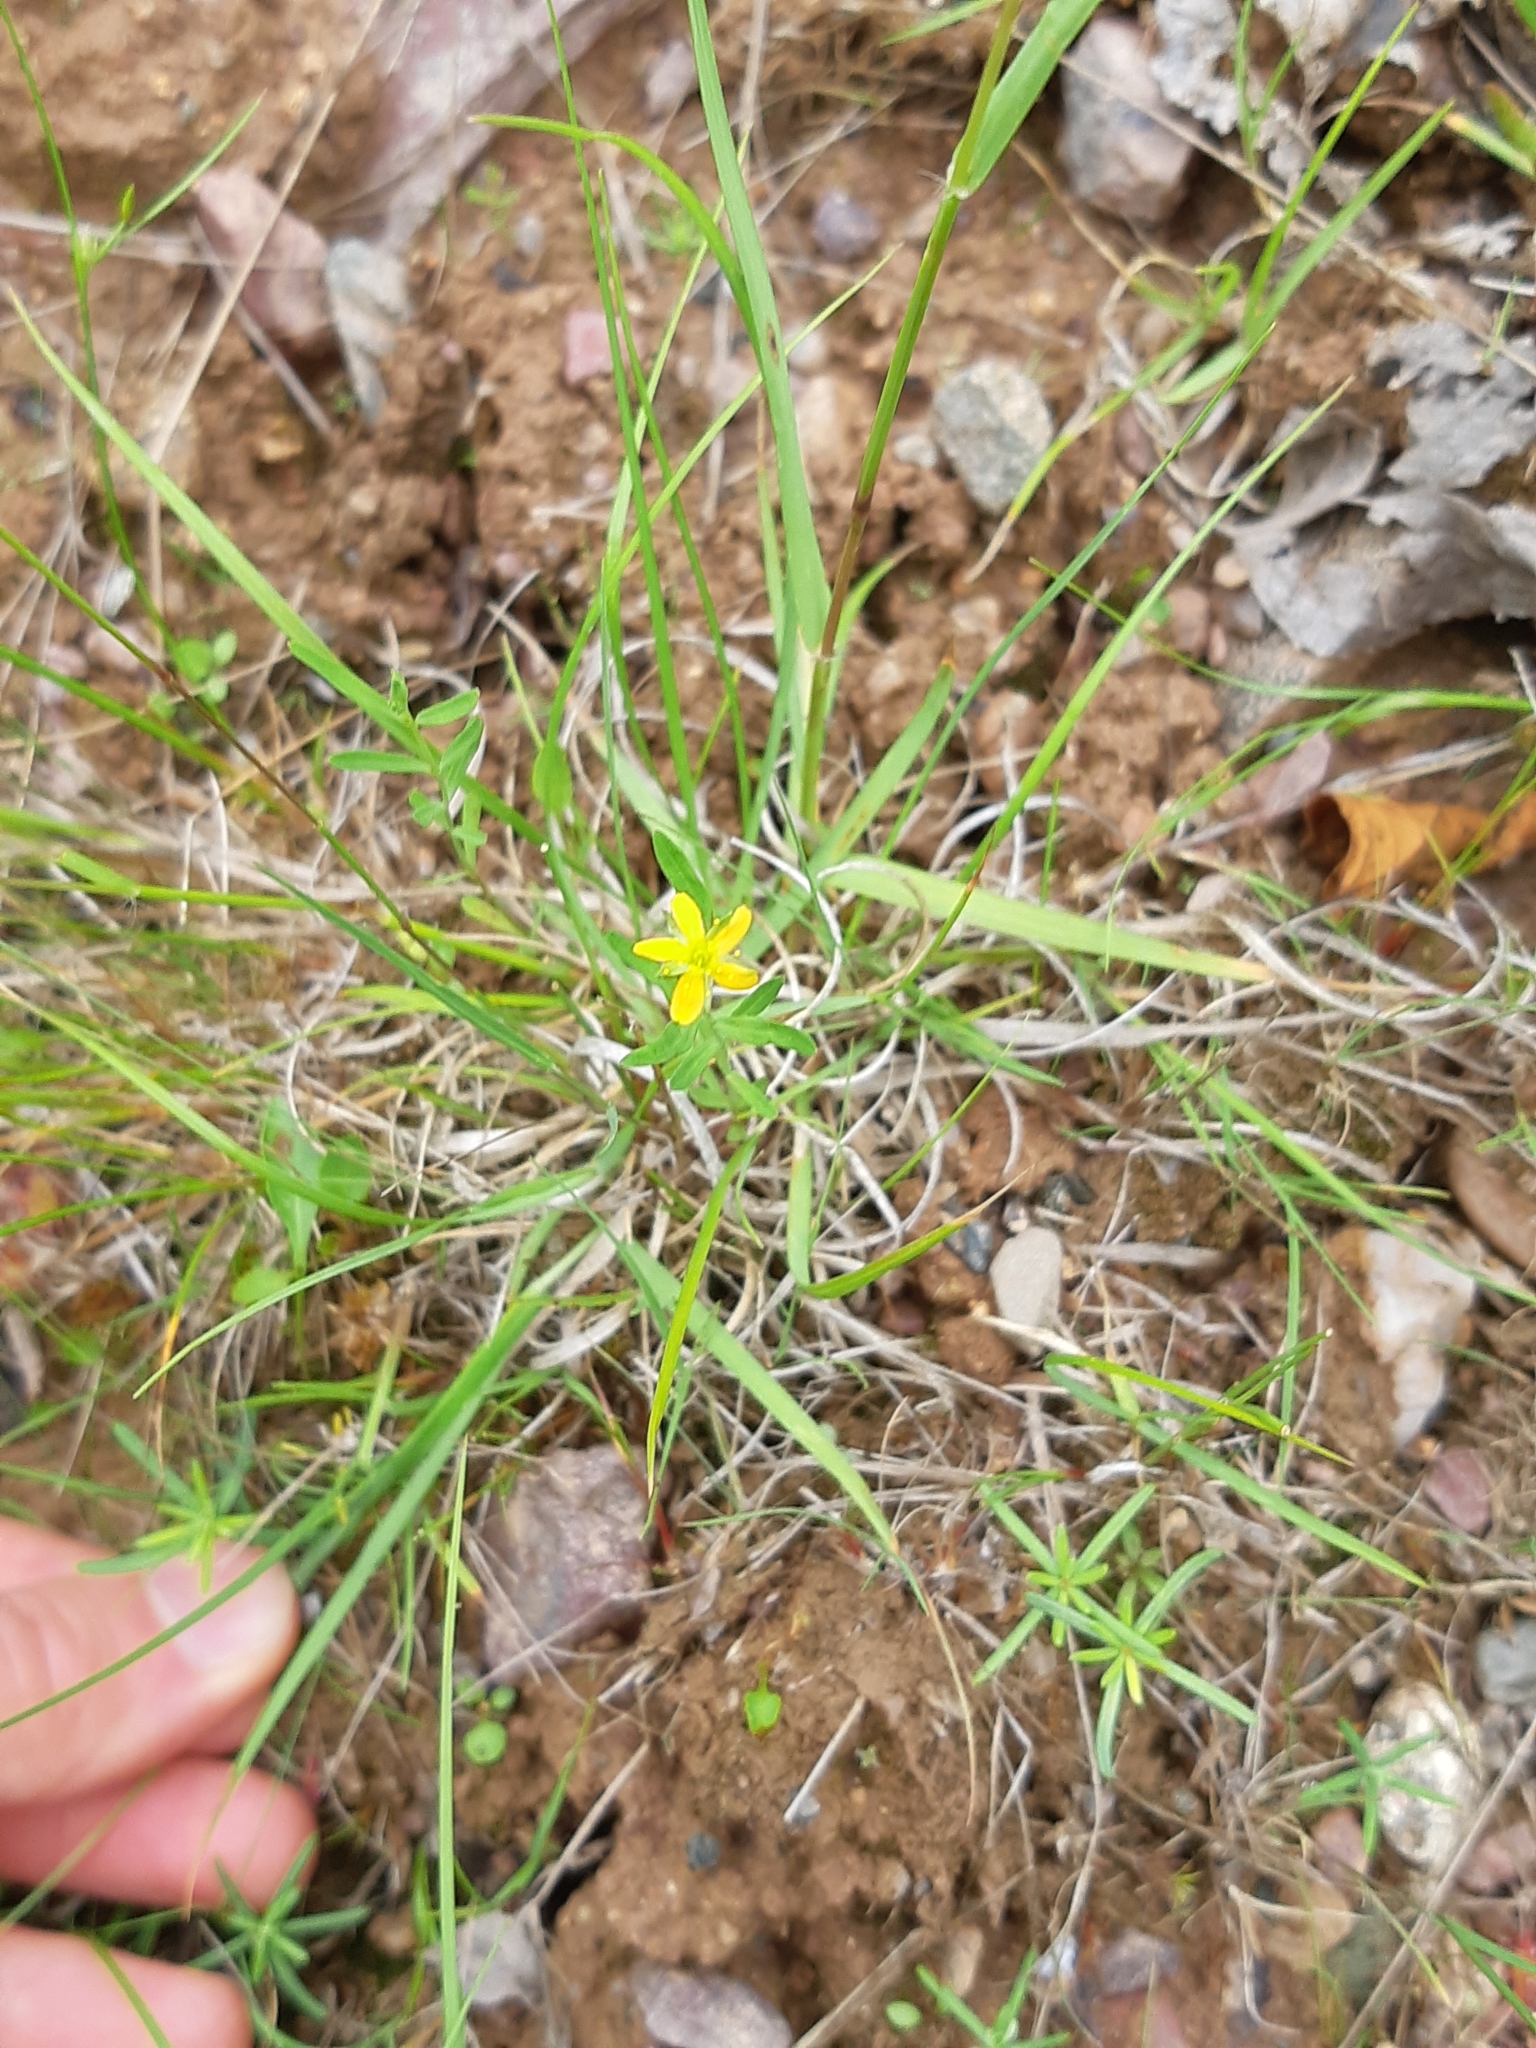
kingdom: Plantae
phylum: Tracheophyta
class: Magnoliopsida
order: Malpighiales
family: Hypericaceae
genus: Hypericum
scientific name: Hypericum canadense
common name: Irish st. john's-wort
